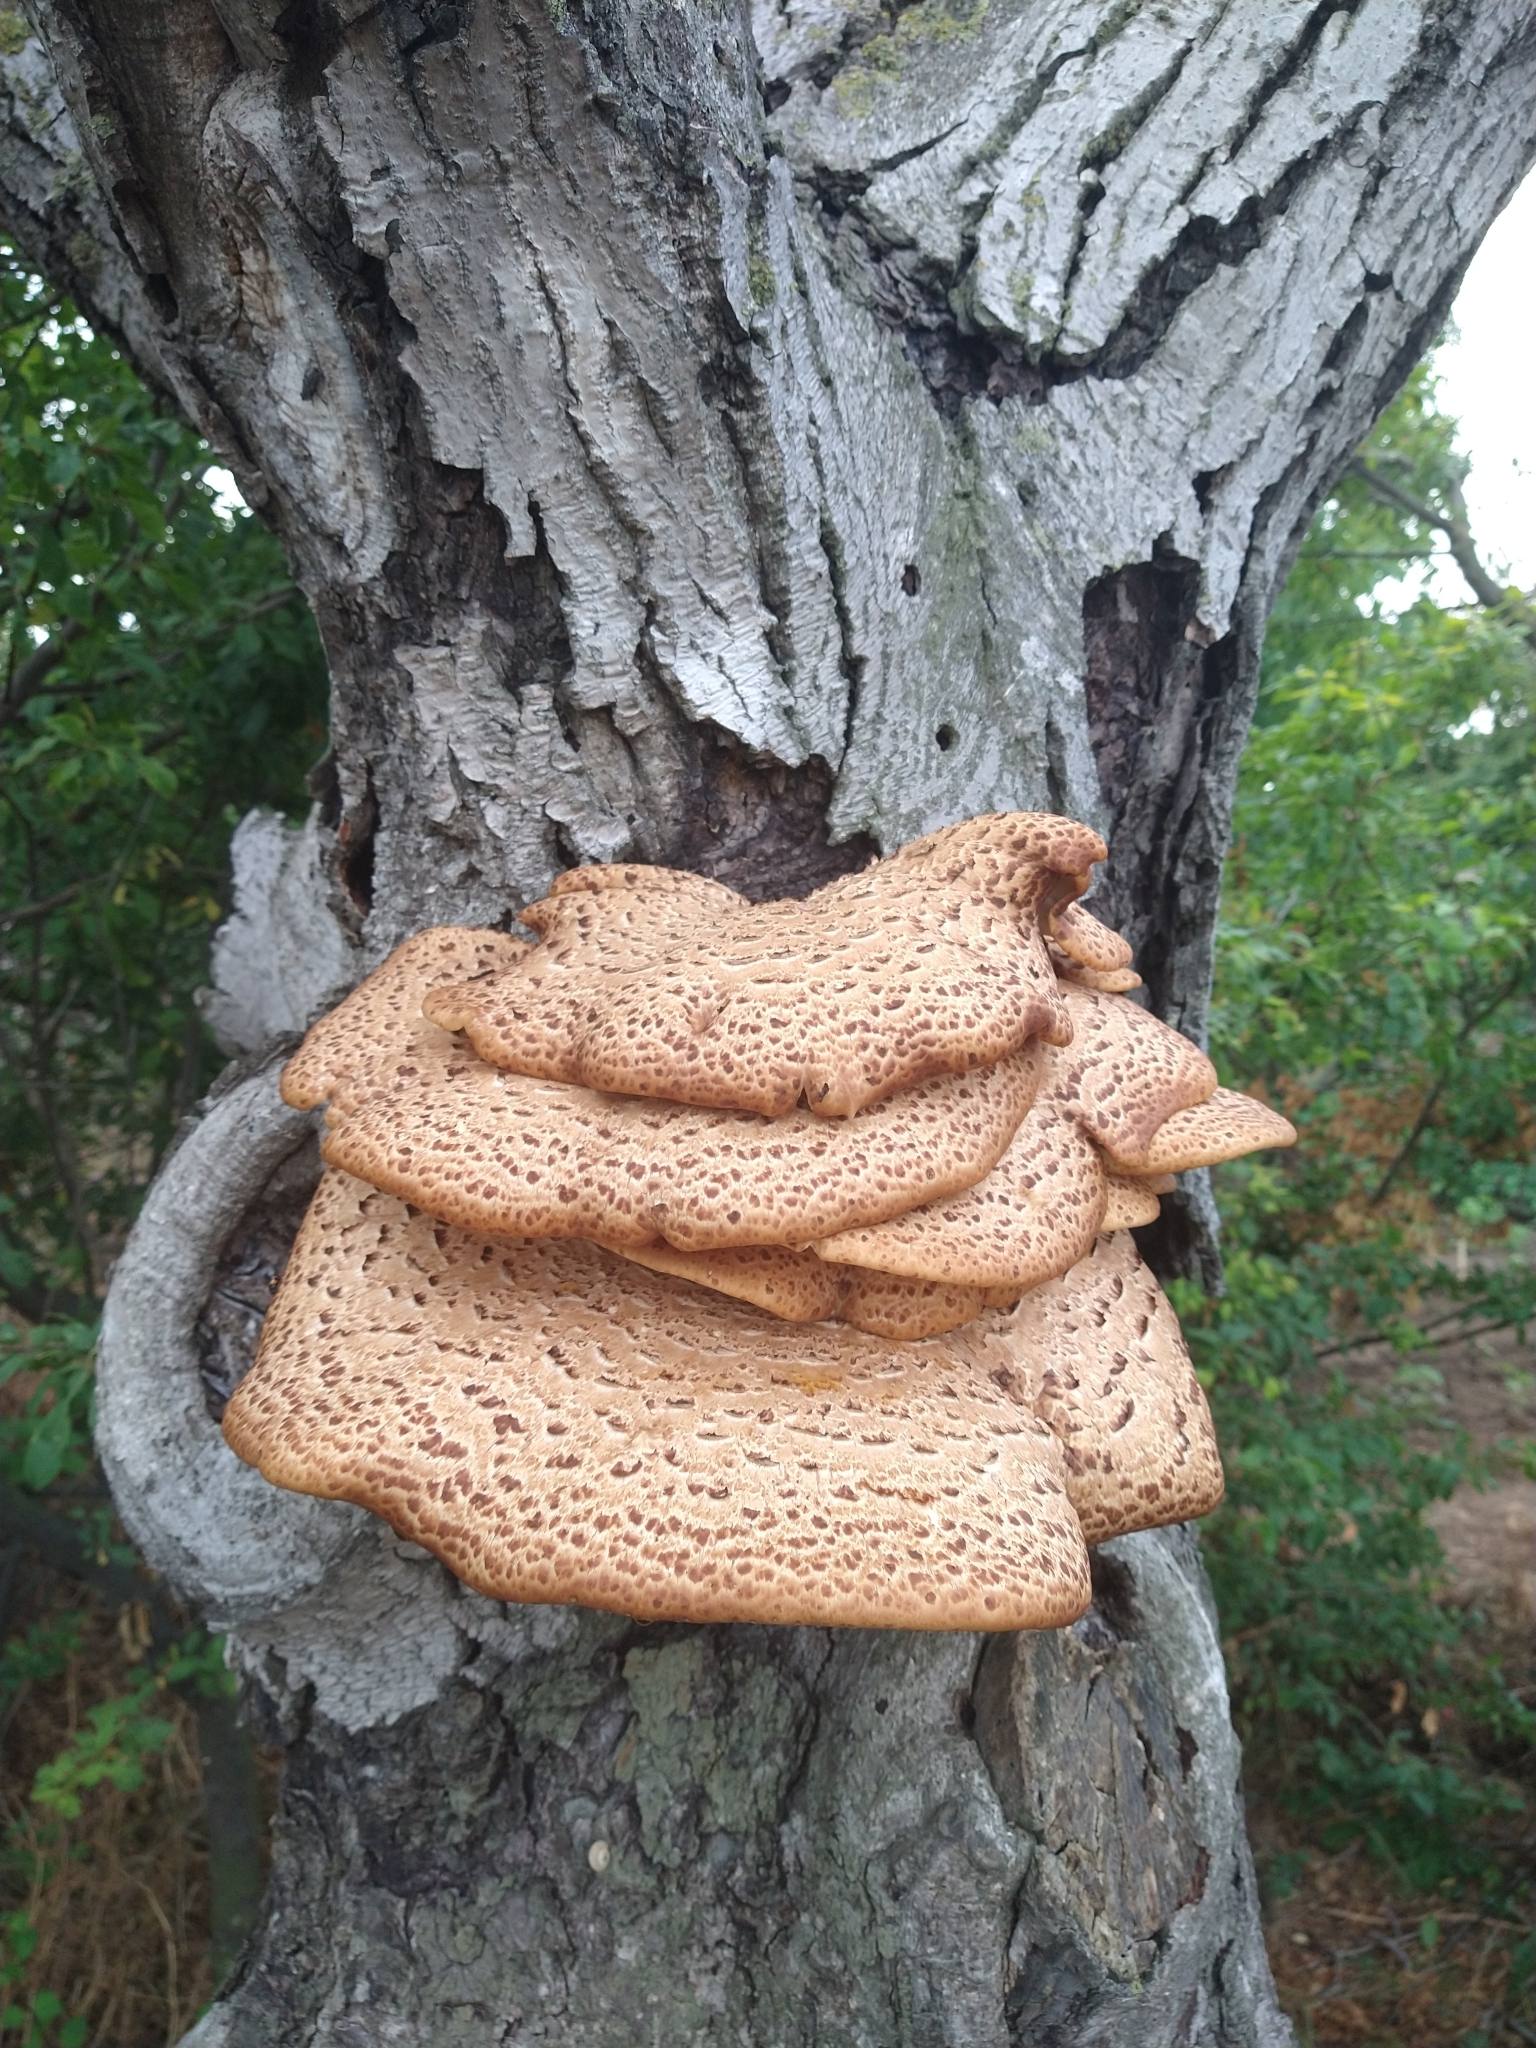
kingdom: Fungi
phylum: Basidiomycota
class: Agaricomycetes
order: Polyporales
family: Polyporaceae
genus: Cerioporus
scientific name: Cerioporus squamosus
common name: Dryad's saddle
